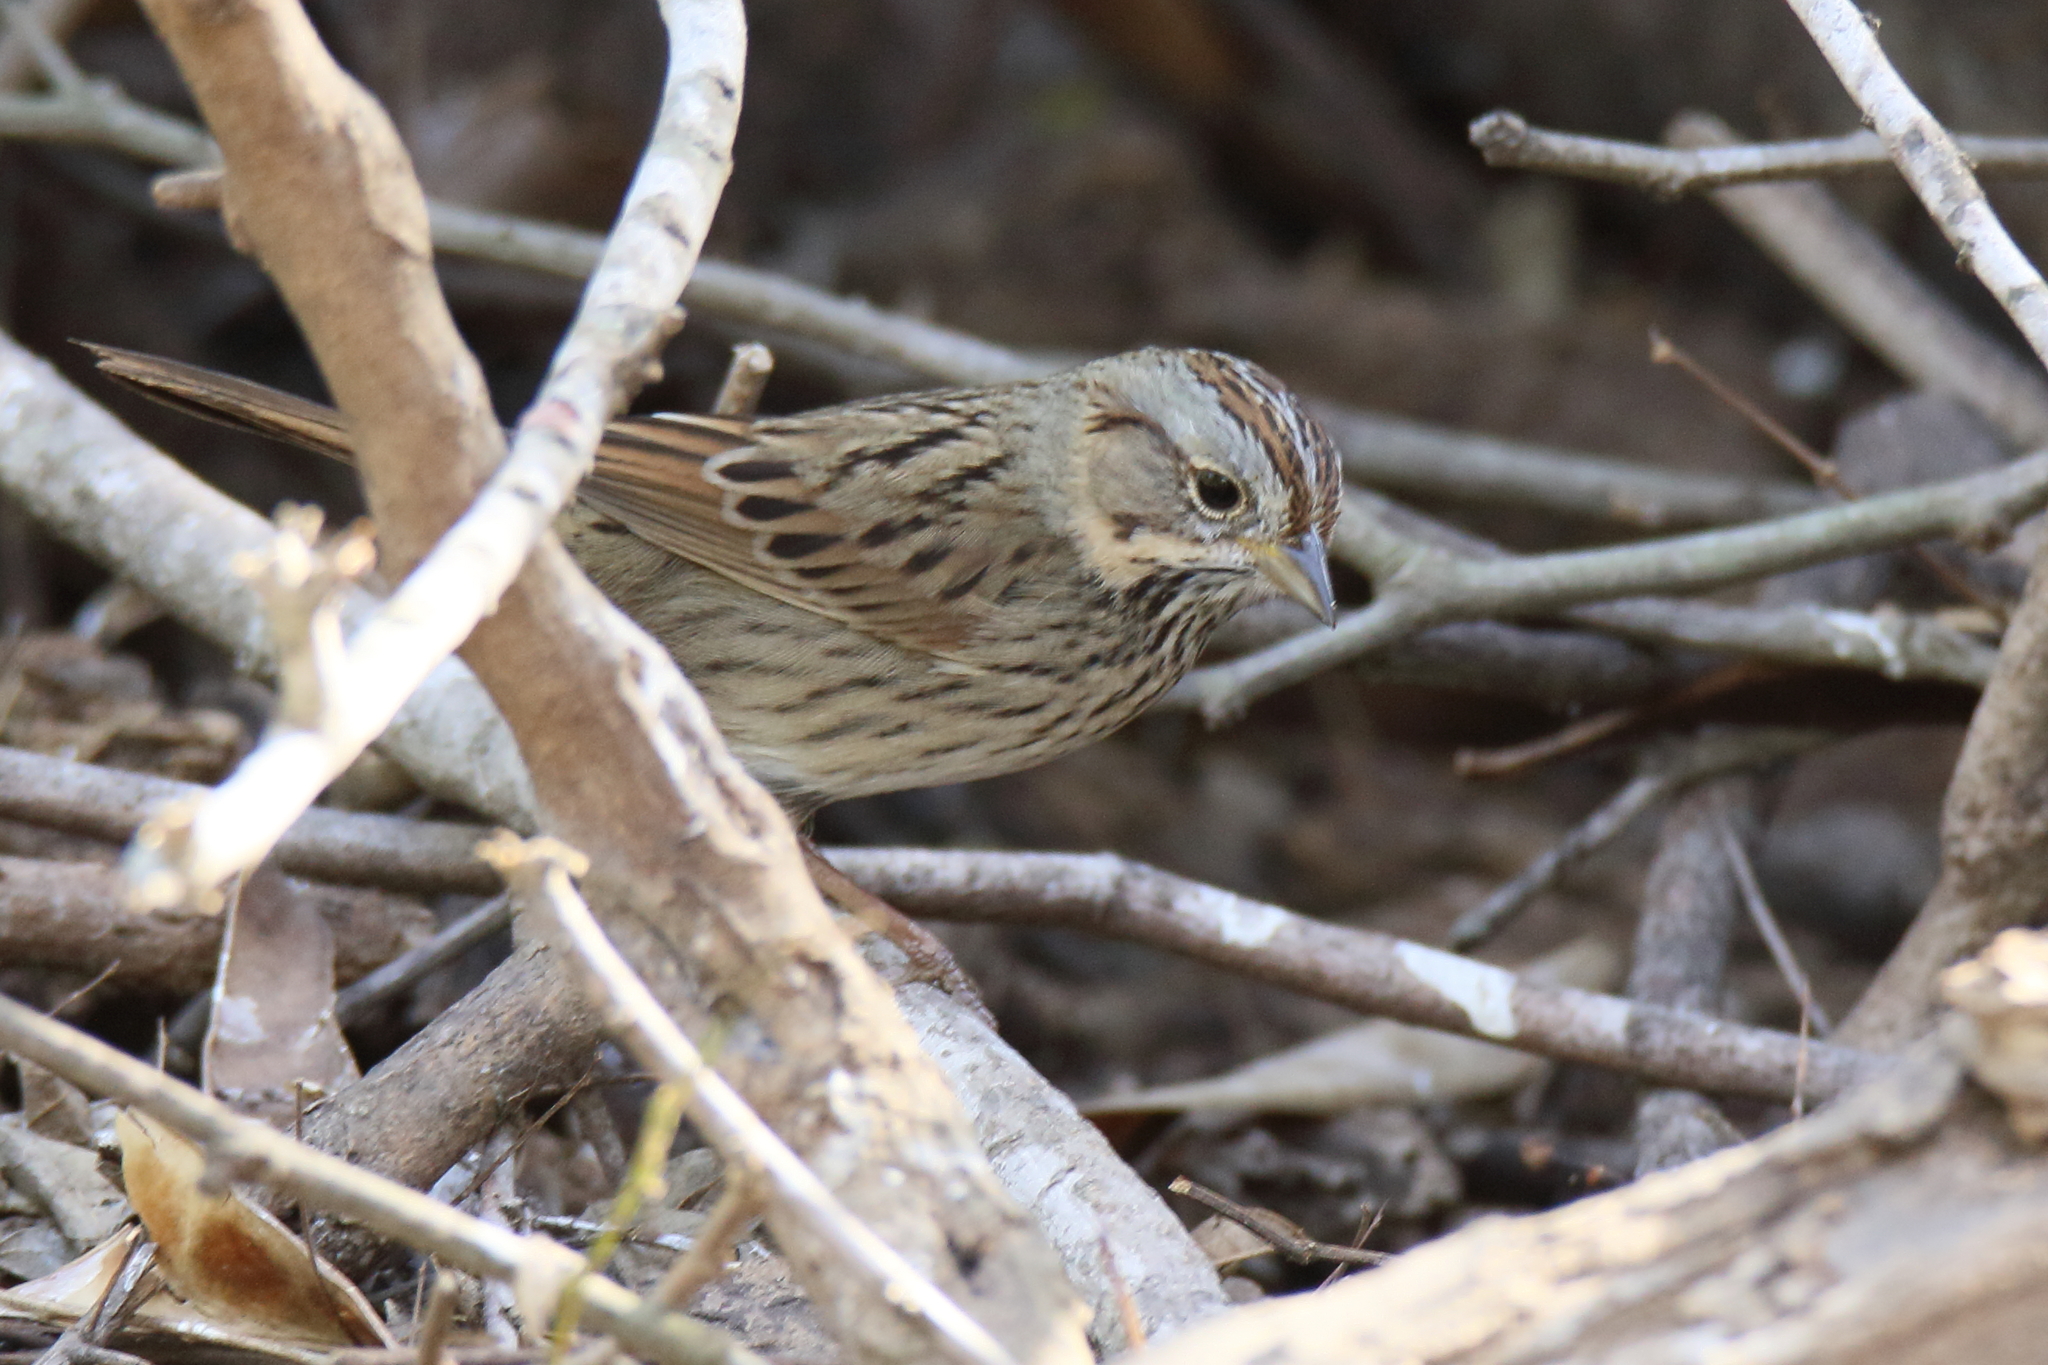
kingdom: Animalia
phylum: Chordata
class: Aves
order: Passeriformes
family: Passerellidae
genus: Melospiza
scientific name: Melospiza lincolnii
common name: Lincoln's sparrow
